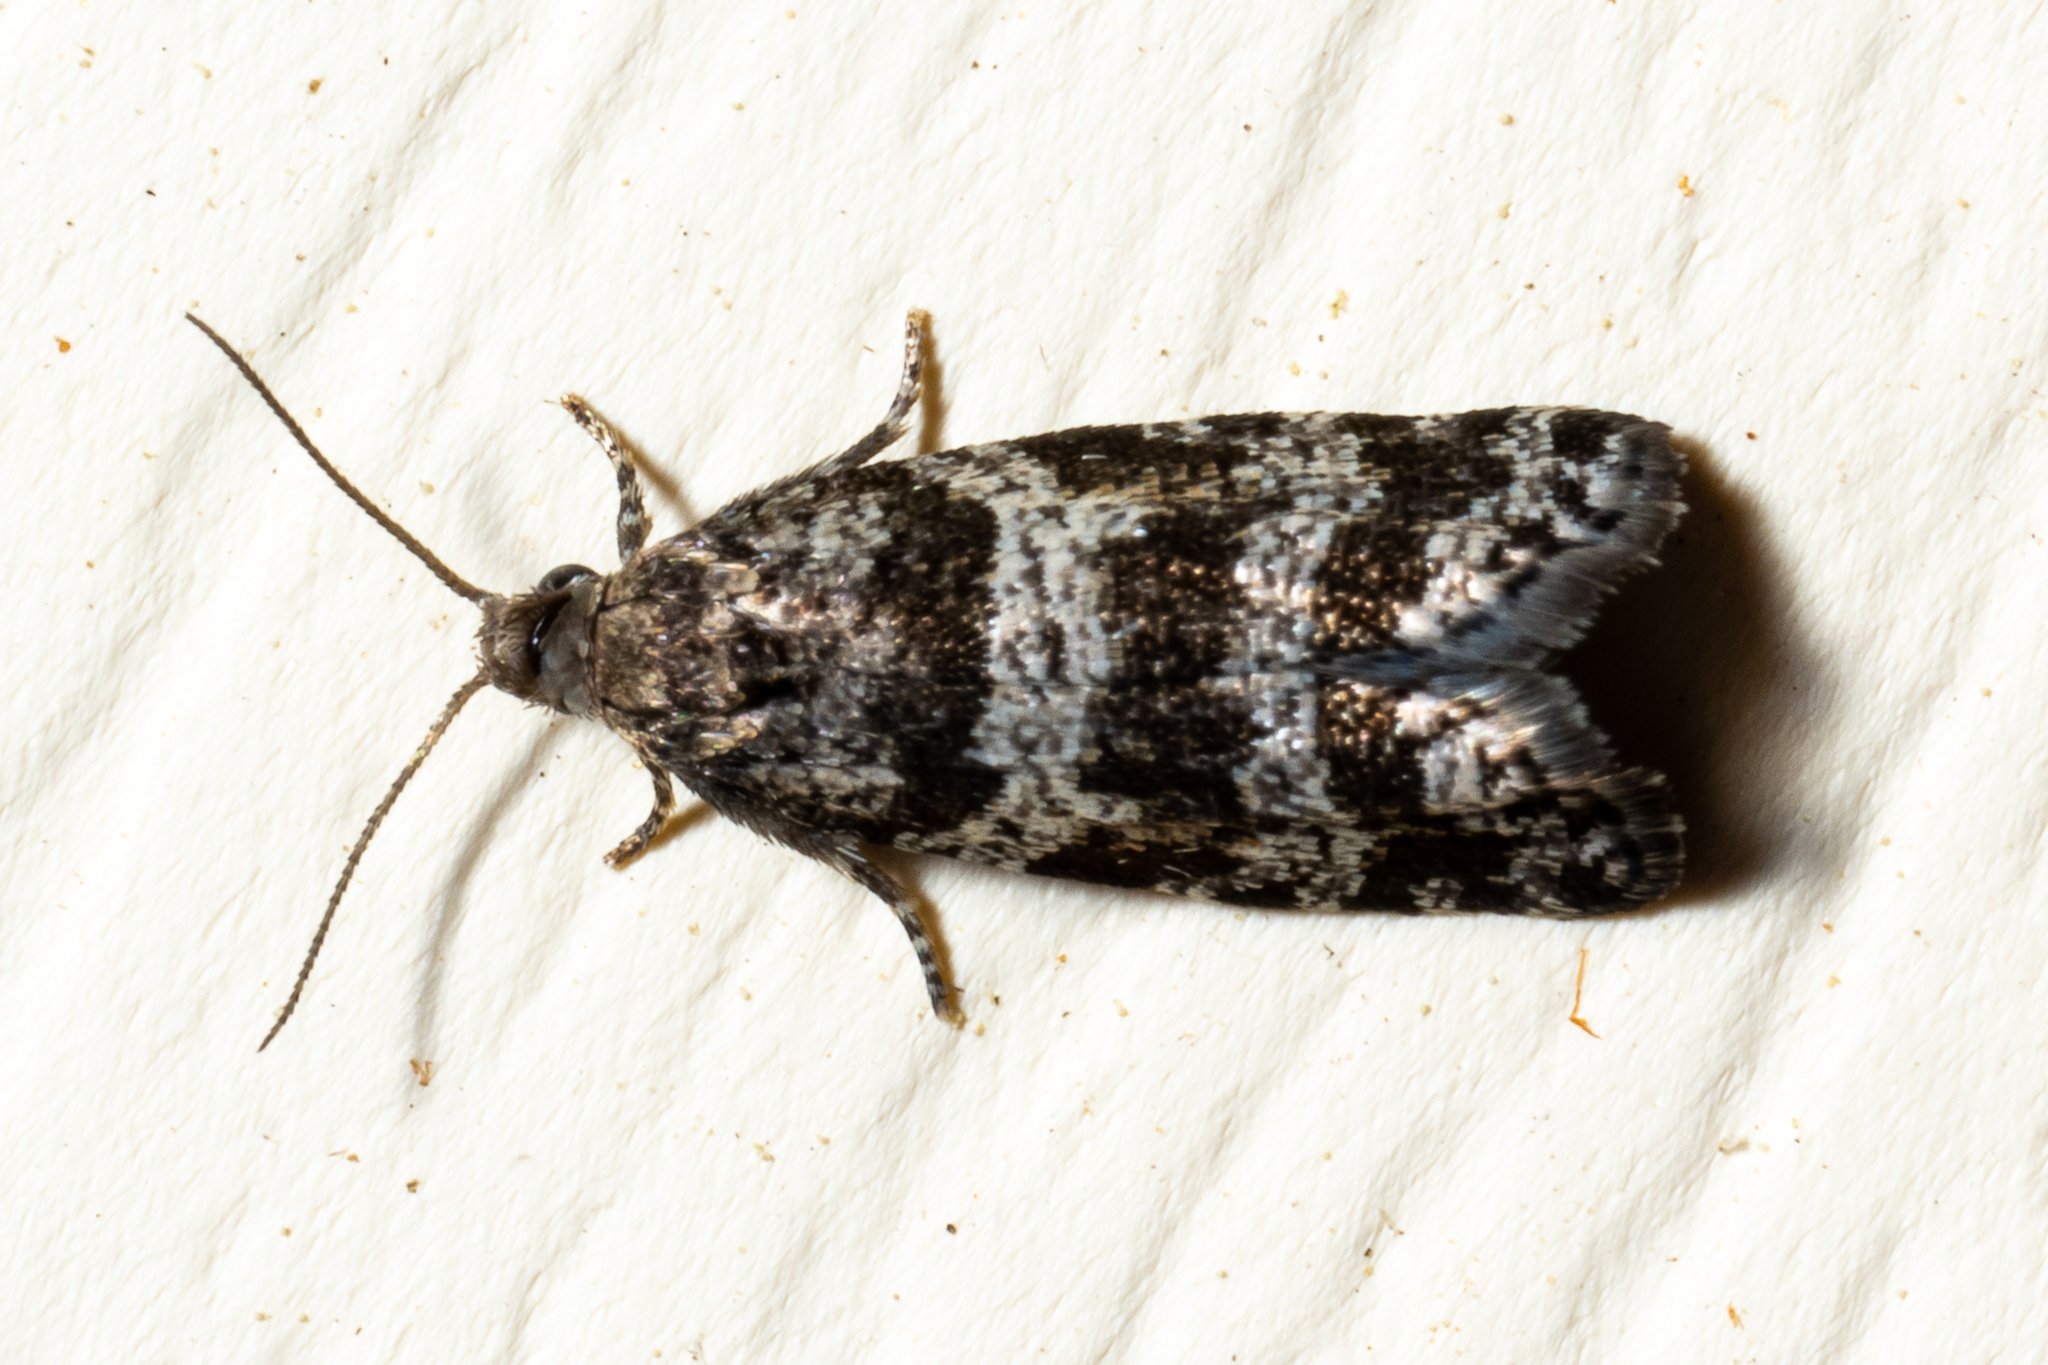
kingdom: Animalia
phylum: Arthropoda
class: Insecta
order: Lepidoptera
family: Tortricidae
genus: Taniva
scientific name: Taniva albolineana
